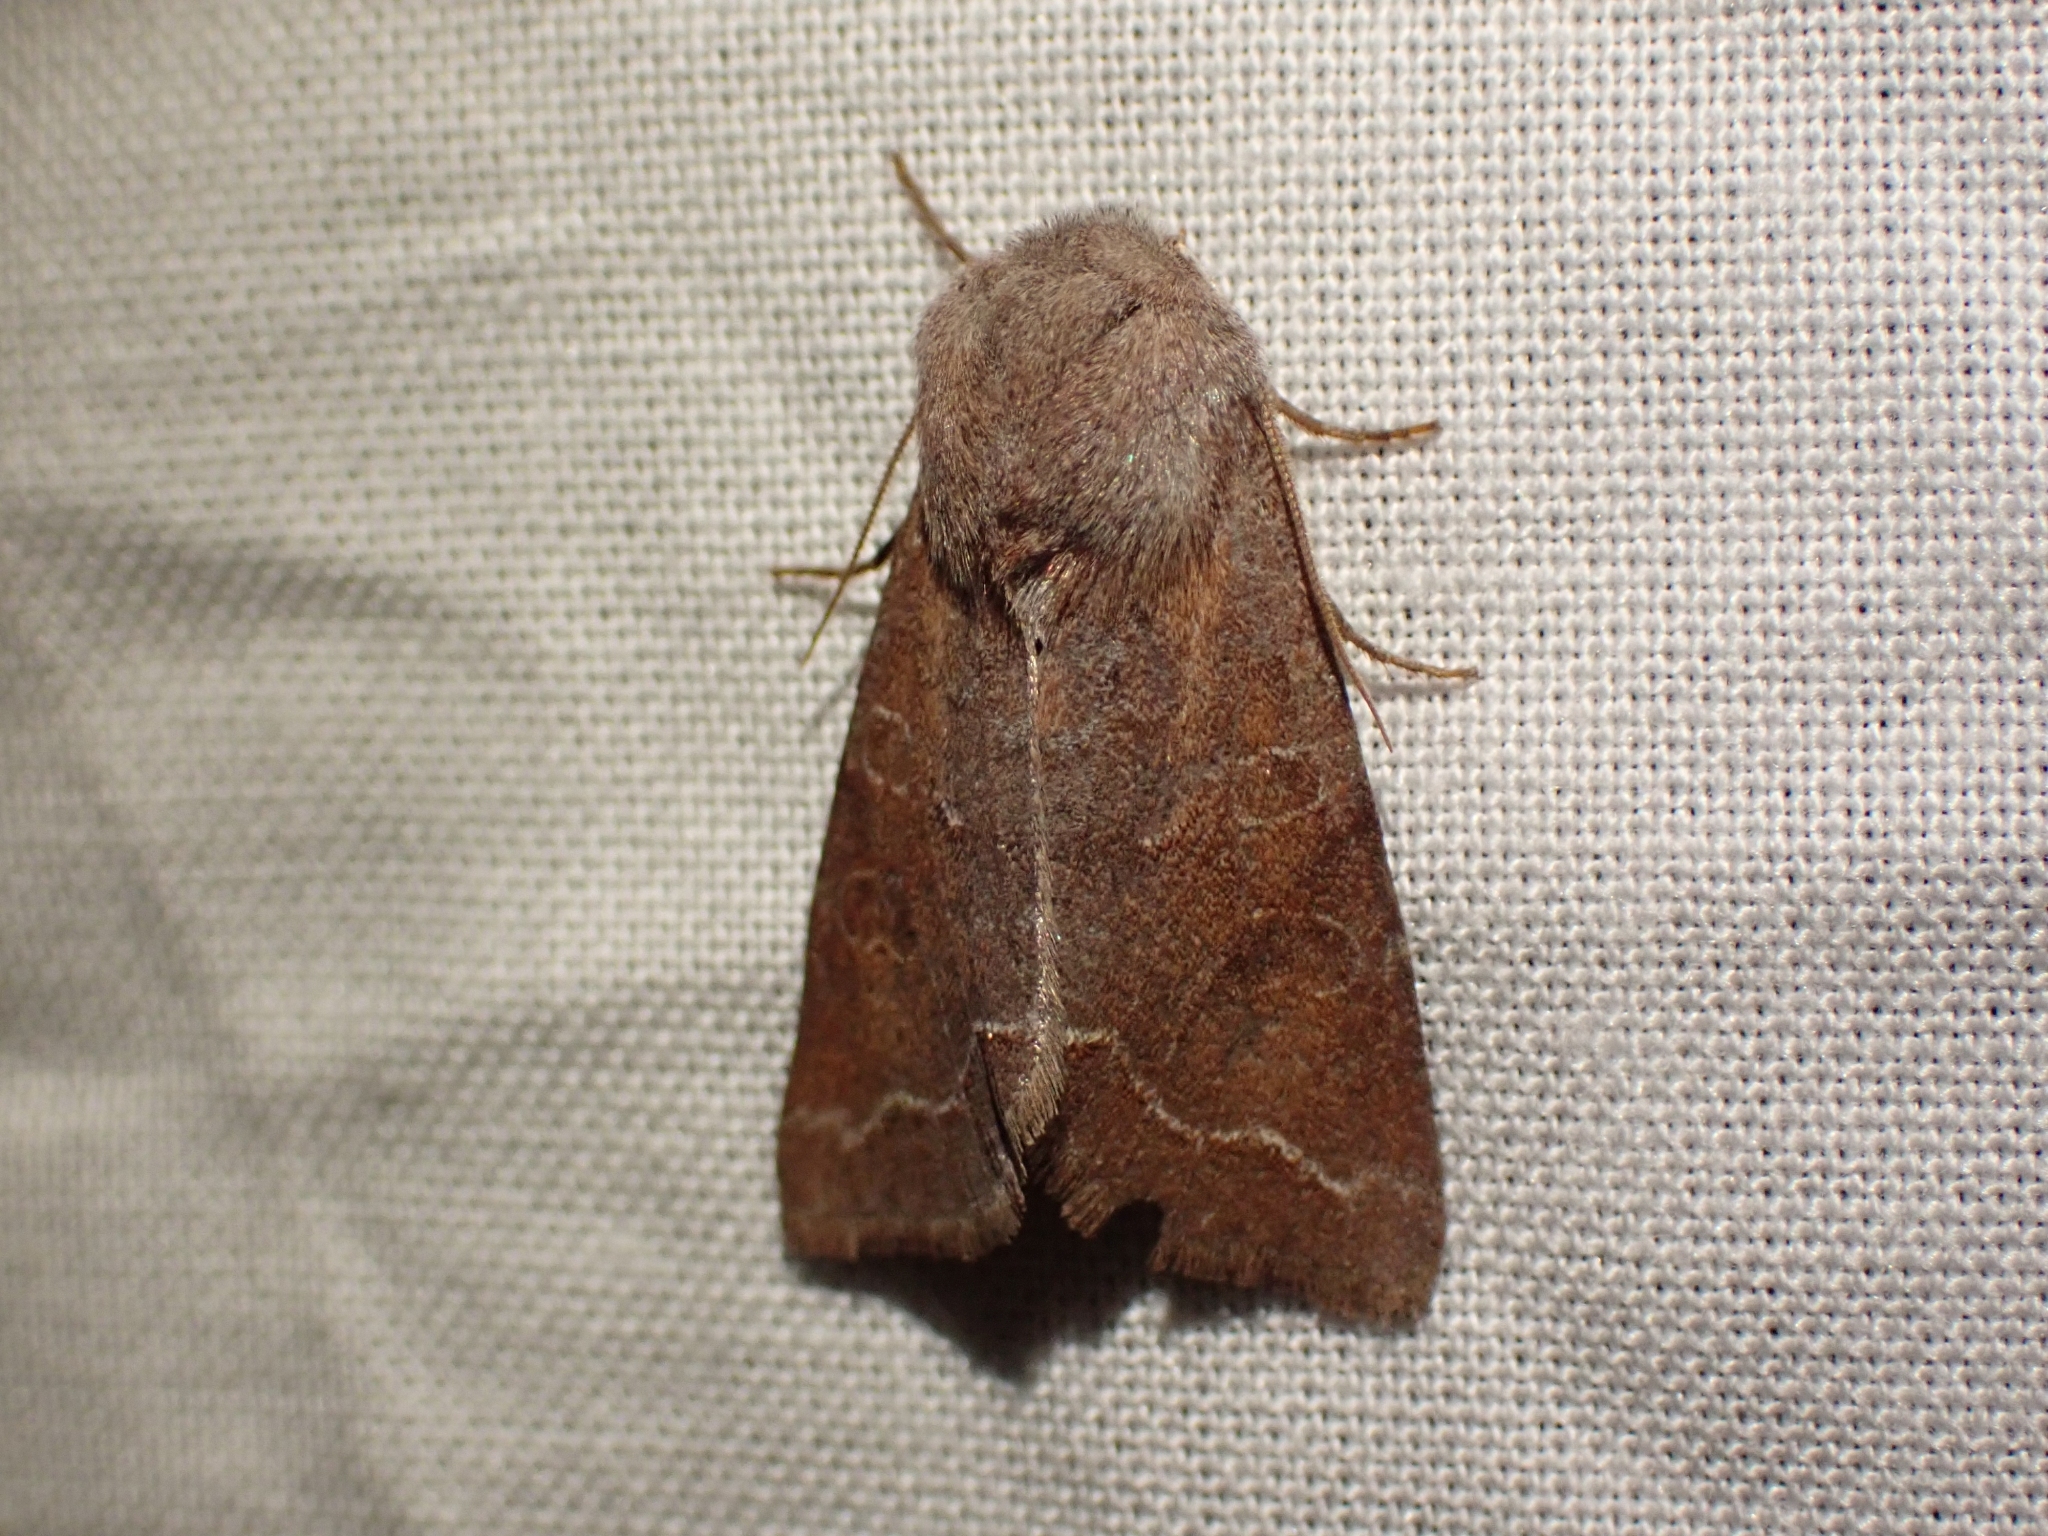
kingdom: Animalia
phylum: Arthropoda
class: Insecta
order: Lepidoptera
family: Noctuidae
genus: Orthosia
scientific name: Orthosia revicta
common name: Rusty whitesided caterpillar
